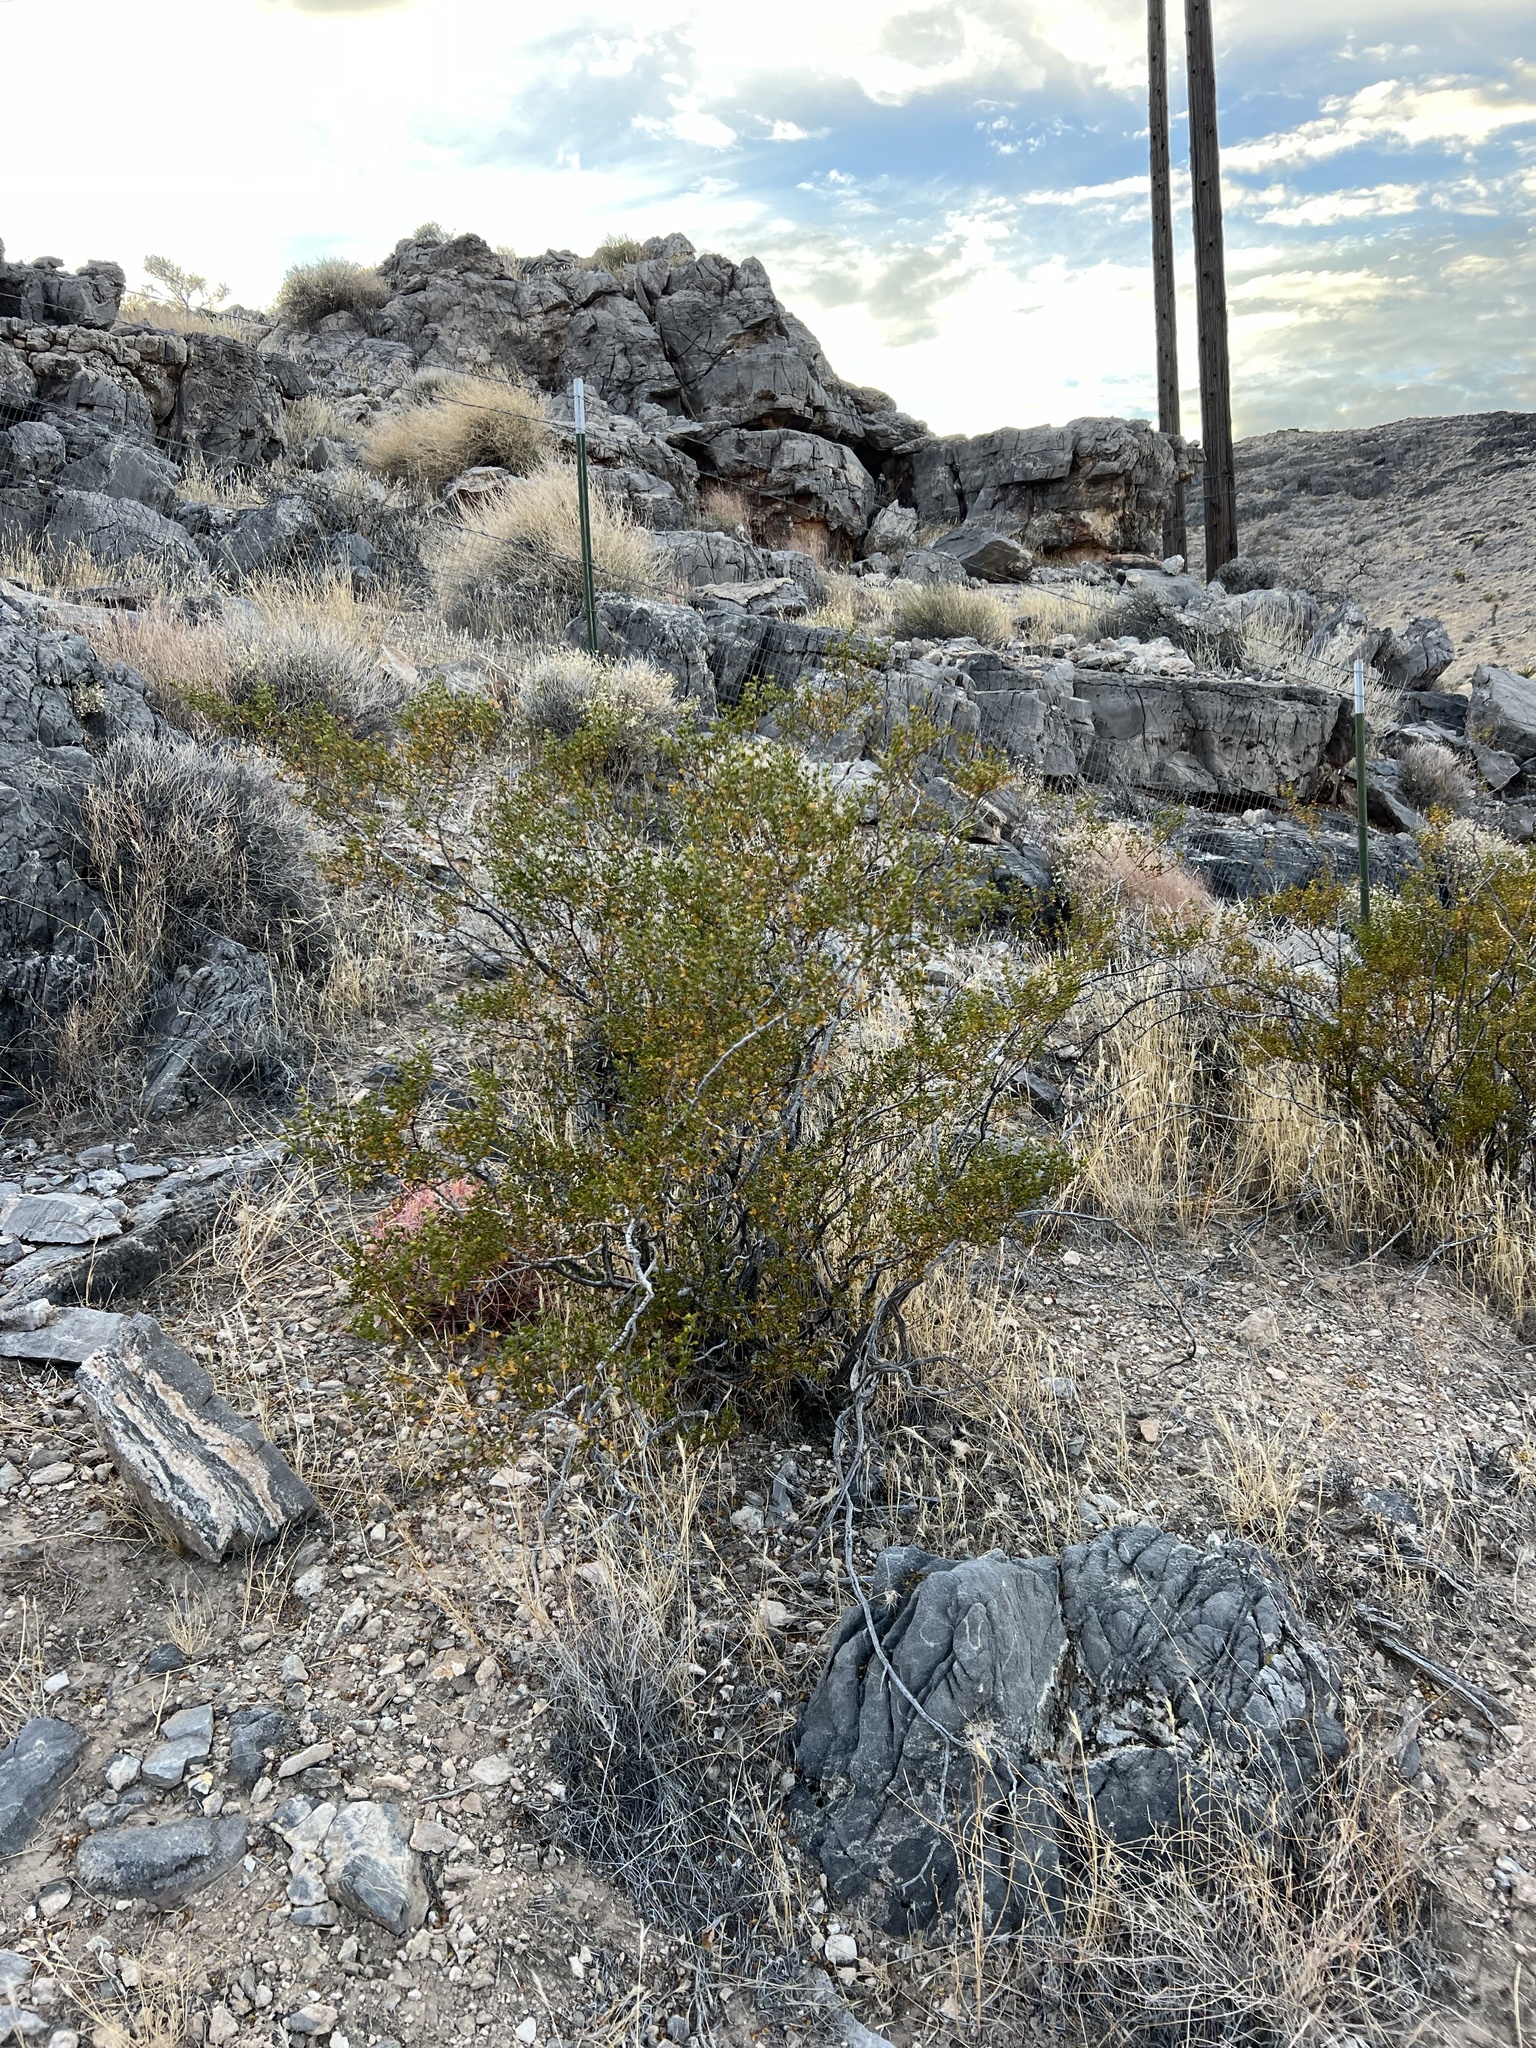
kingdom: Plantae
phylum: Tracheophyta
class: Magnoliopsida
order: Zygophyllales
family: Zygophyllaceae
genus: Larrea
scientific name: Larrea tridentata
